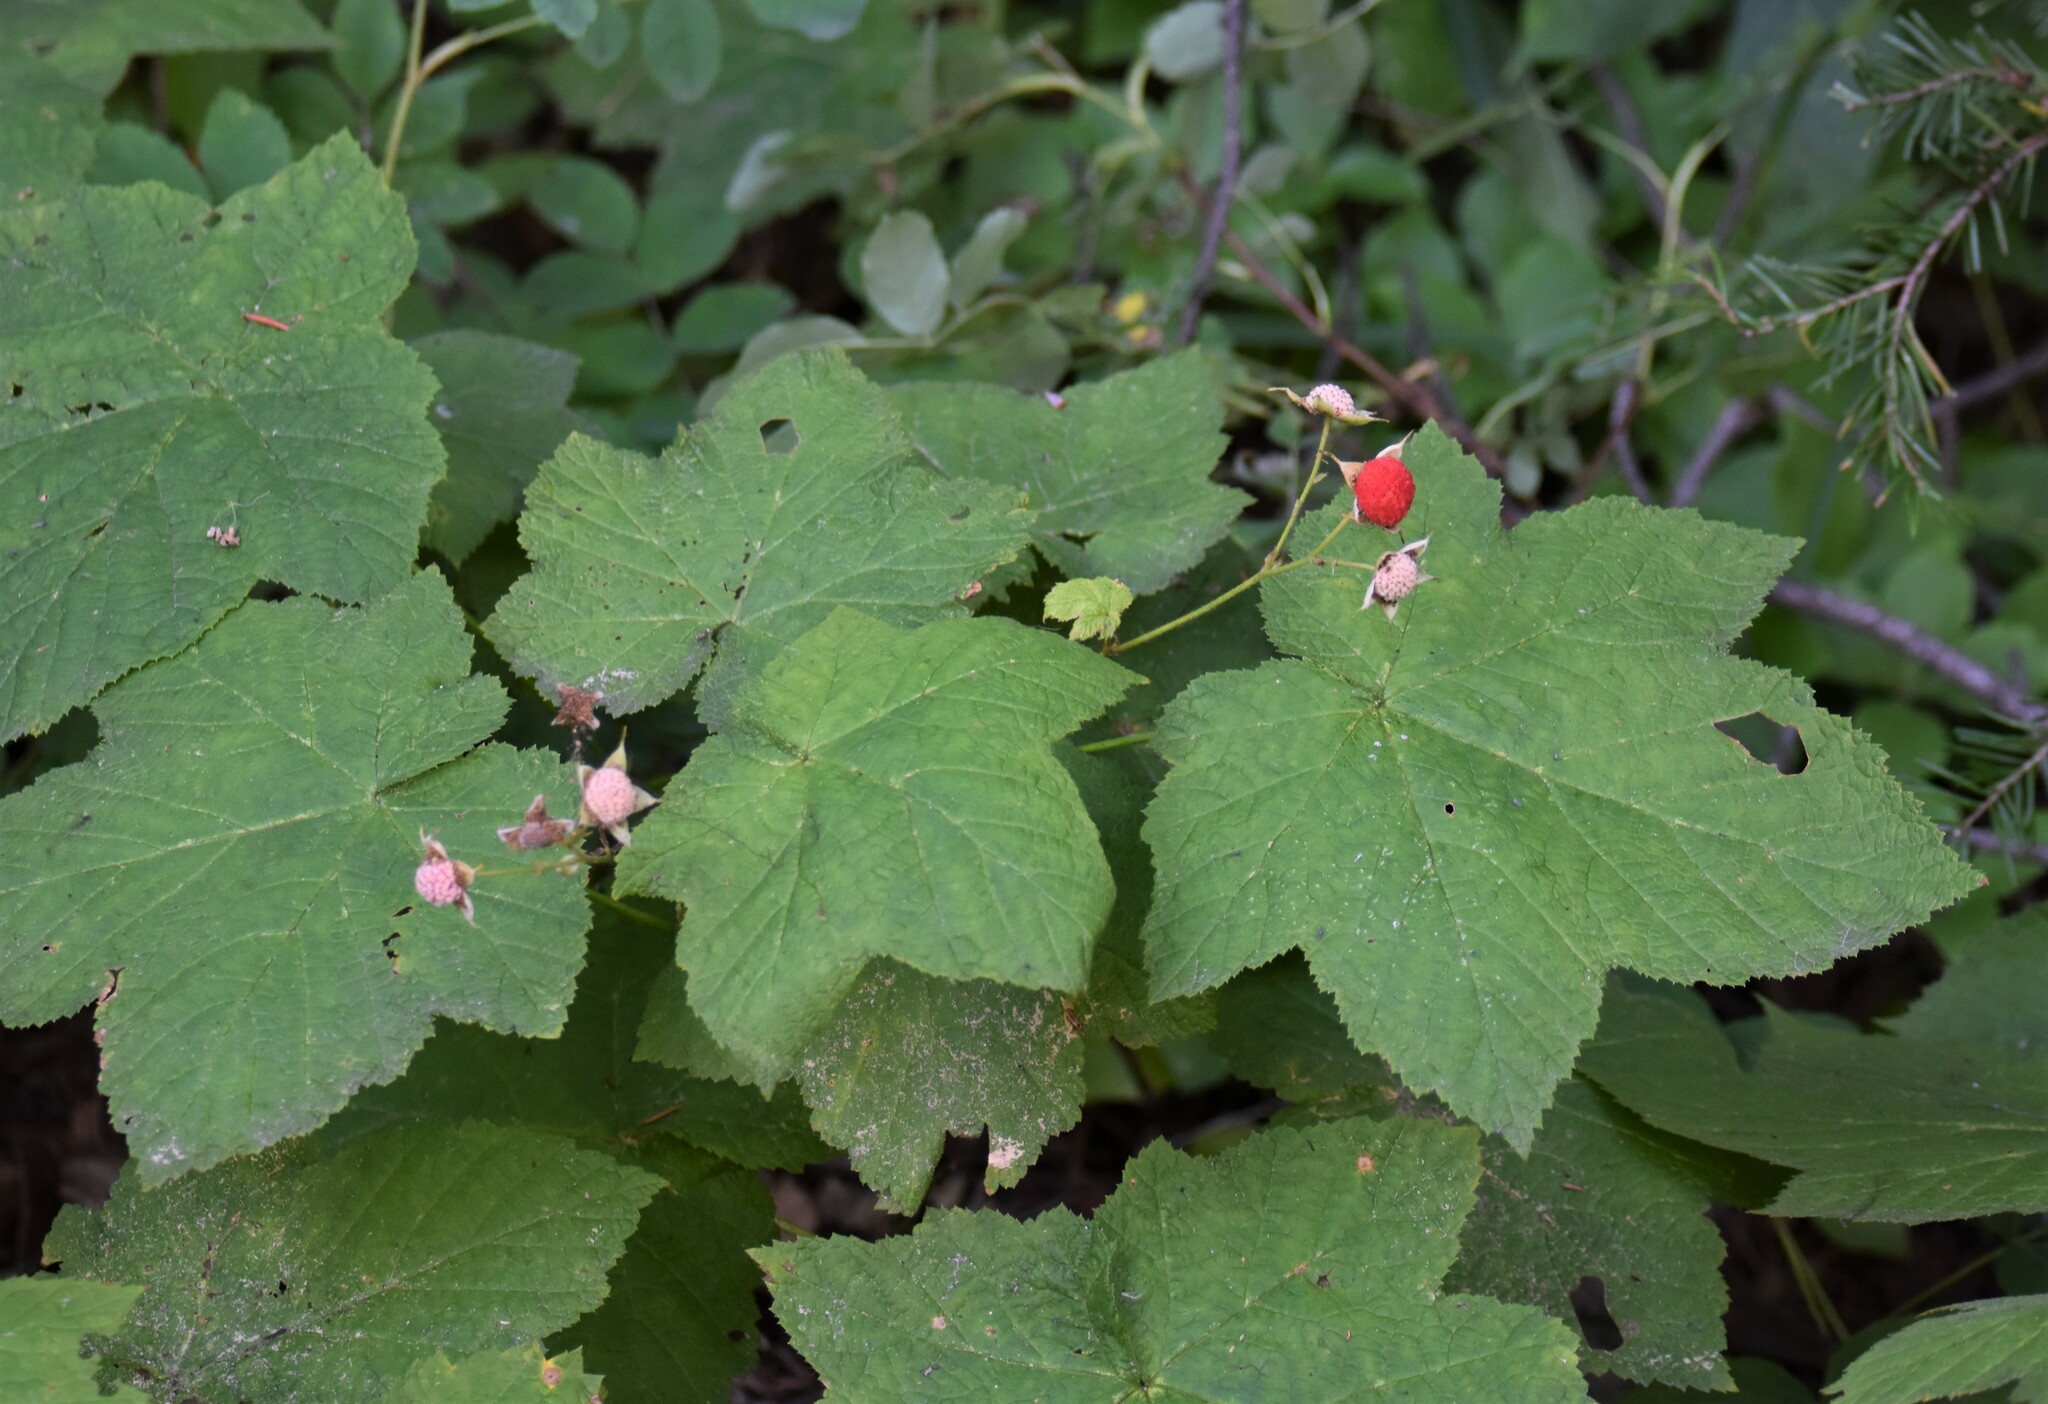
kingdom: Plantae
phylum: Tracheophyta
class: Magnoliopsida
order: Rosales
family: Rosaceae
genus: Rubus
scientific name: Rubus parviflorus
